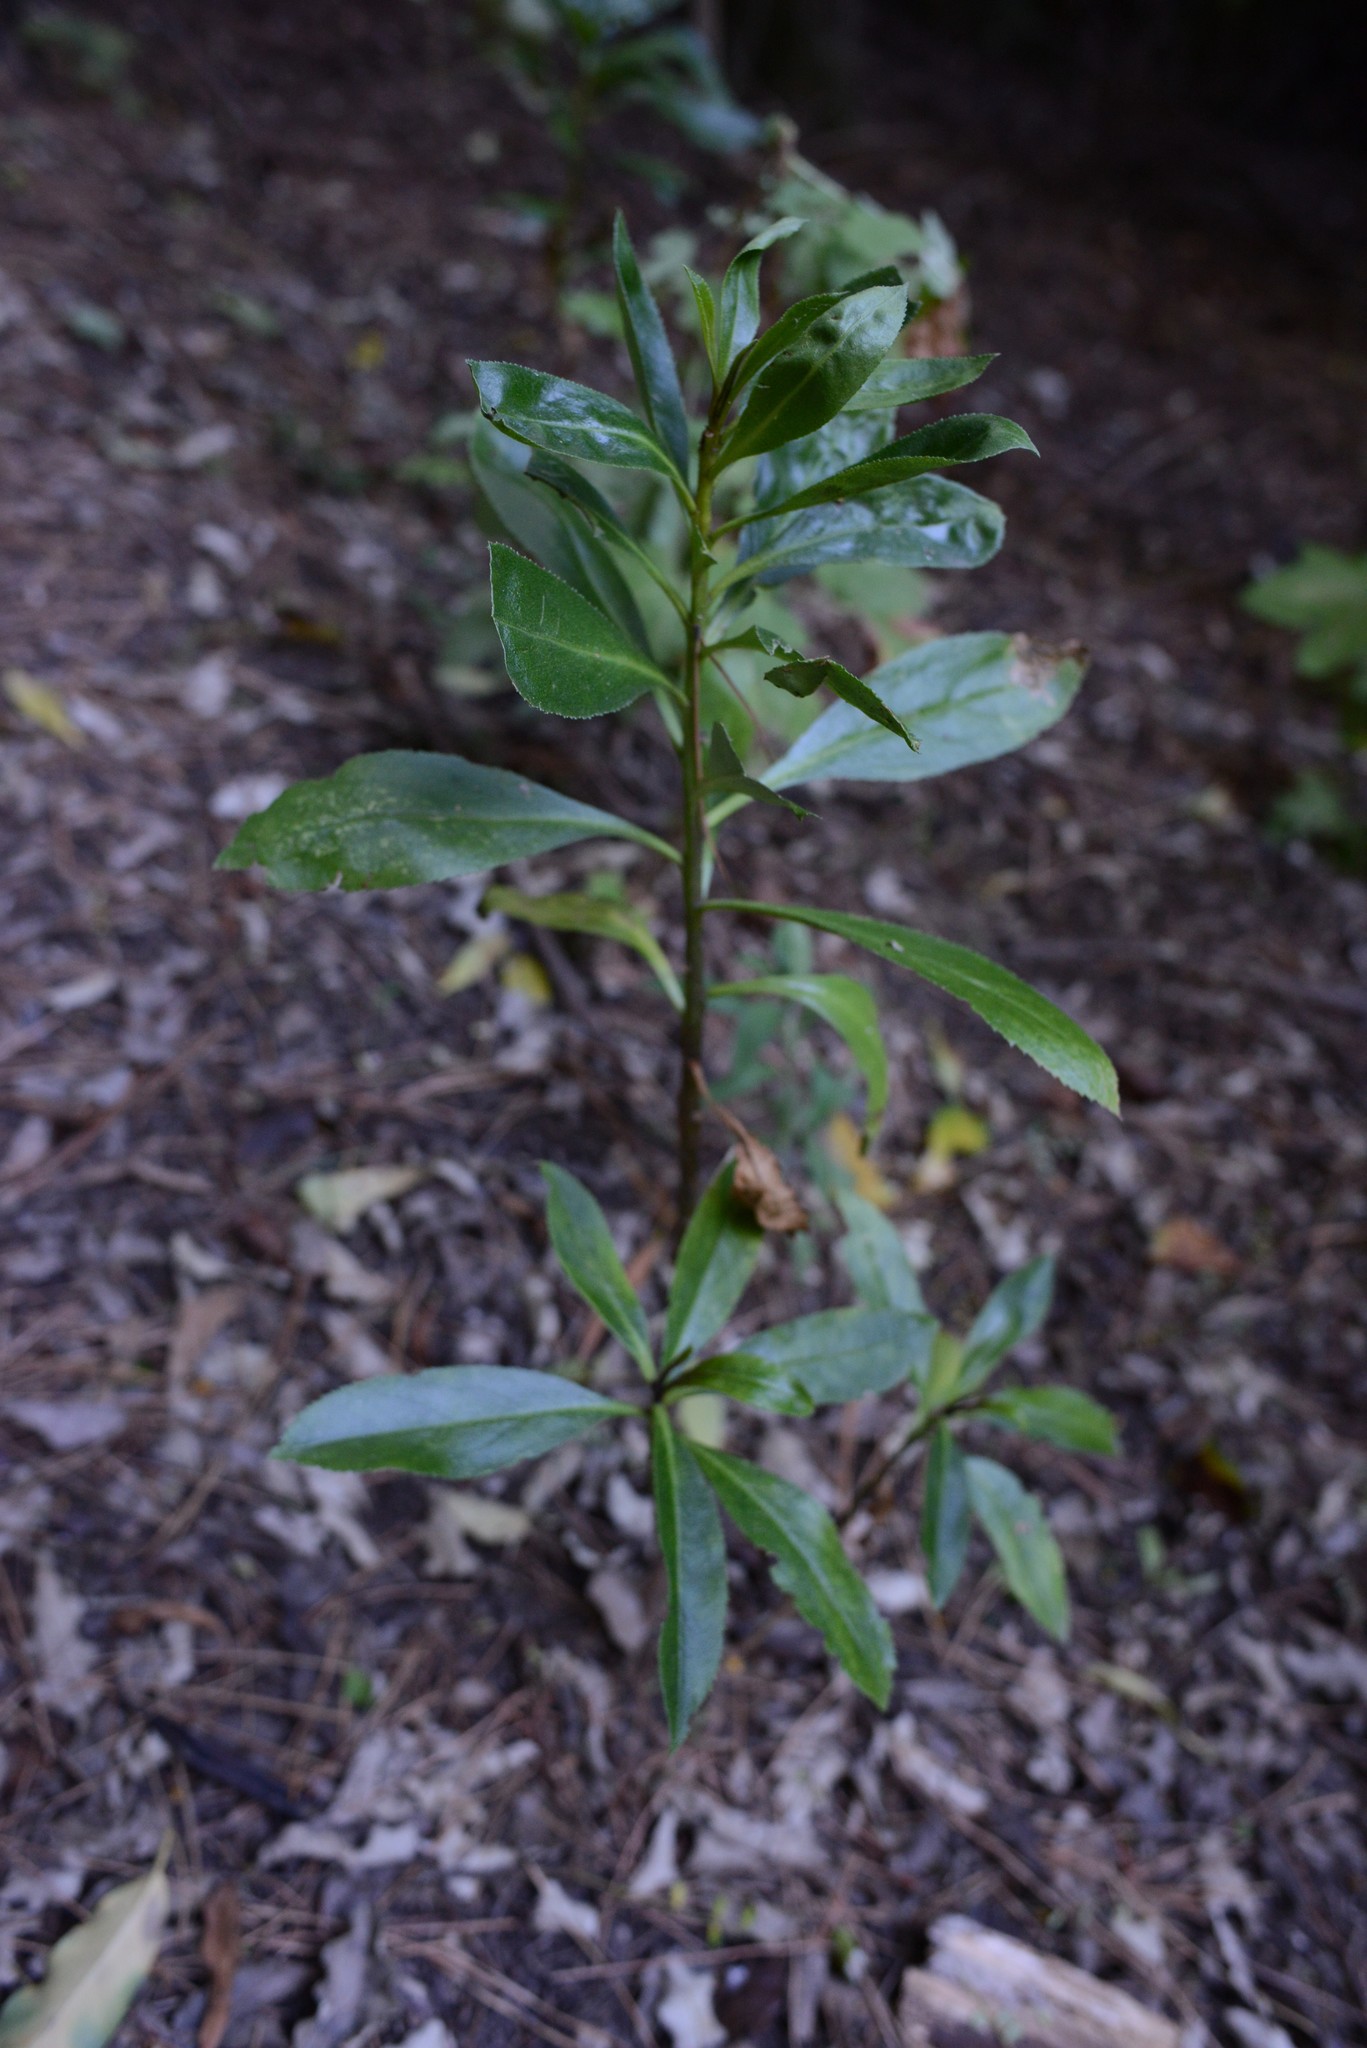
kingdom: Plantae
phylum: Tracheophyta
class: Magnoliopsida
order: Lamiales
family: Scrophulariaceae
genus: Myoporum
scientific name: Myoporum laetum
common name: Ngaio tree
